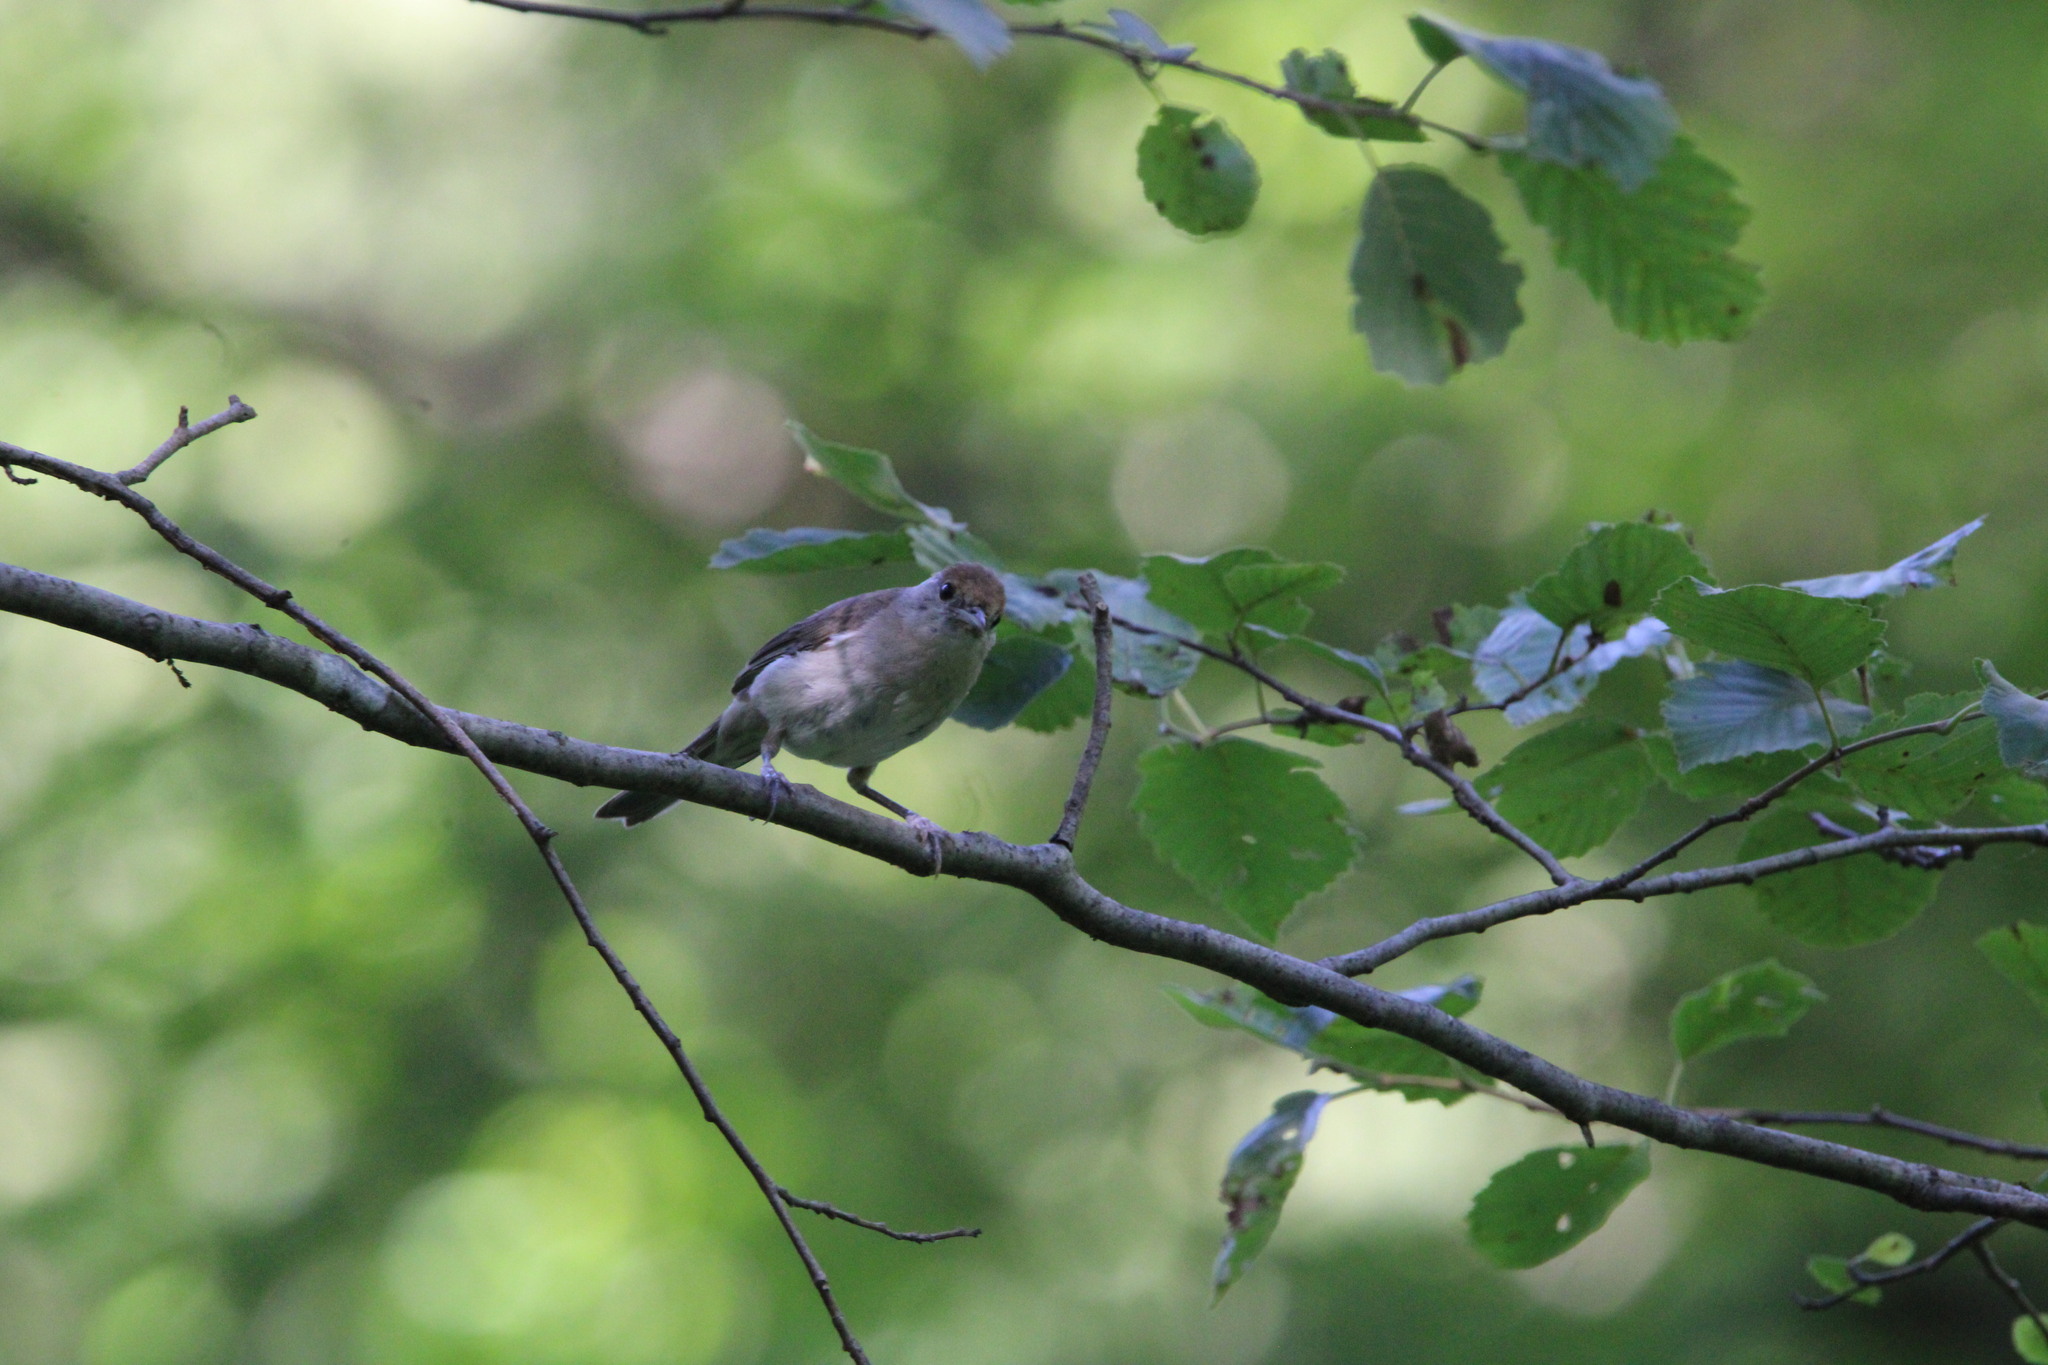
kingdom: Animalia
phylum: Chordata
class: Aves
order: Passeriformes
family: Sylviidae
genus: Sylvia
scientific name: Sylvia atricapilla
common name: Eurasian blackcap
